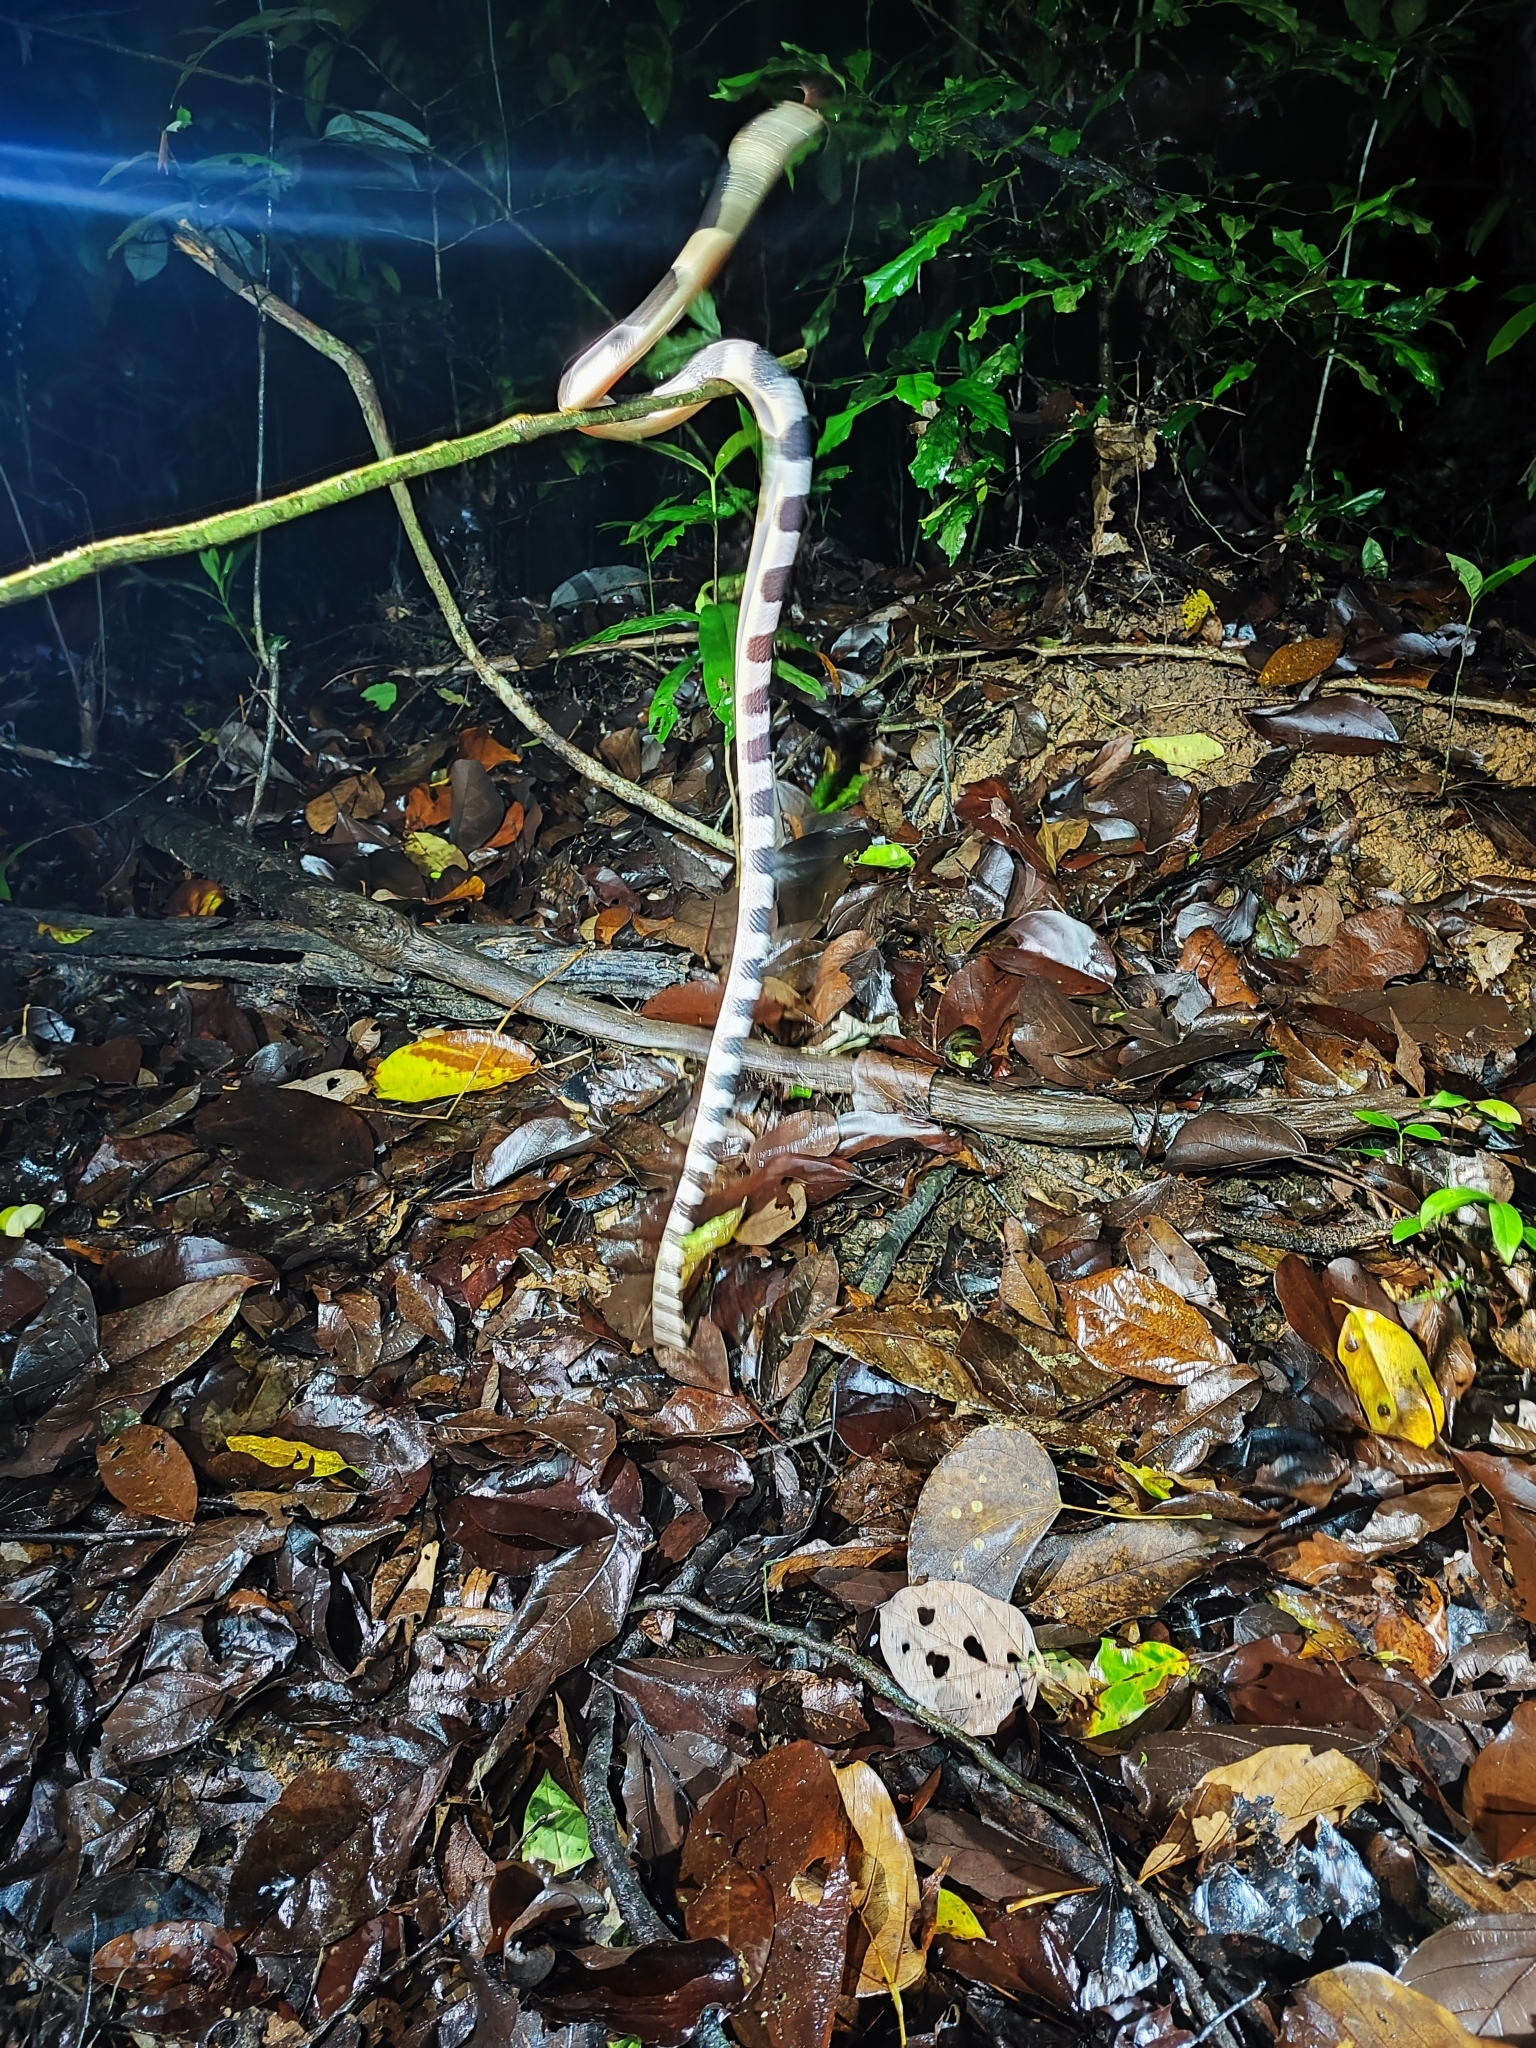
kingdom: Animalia
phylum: Chordata
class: Squamata
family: Elapidae
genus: Bungarus
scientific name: Bungarus candidus
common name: Blue krait/malayan krait
